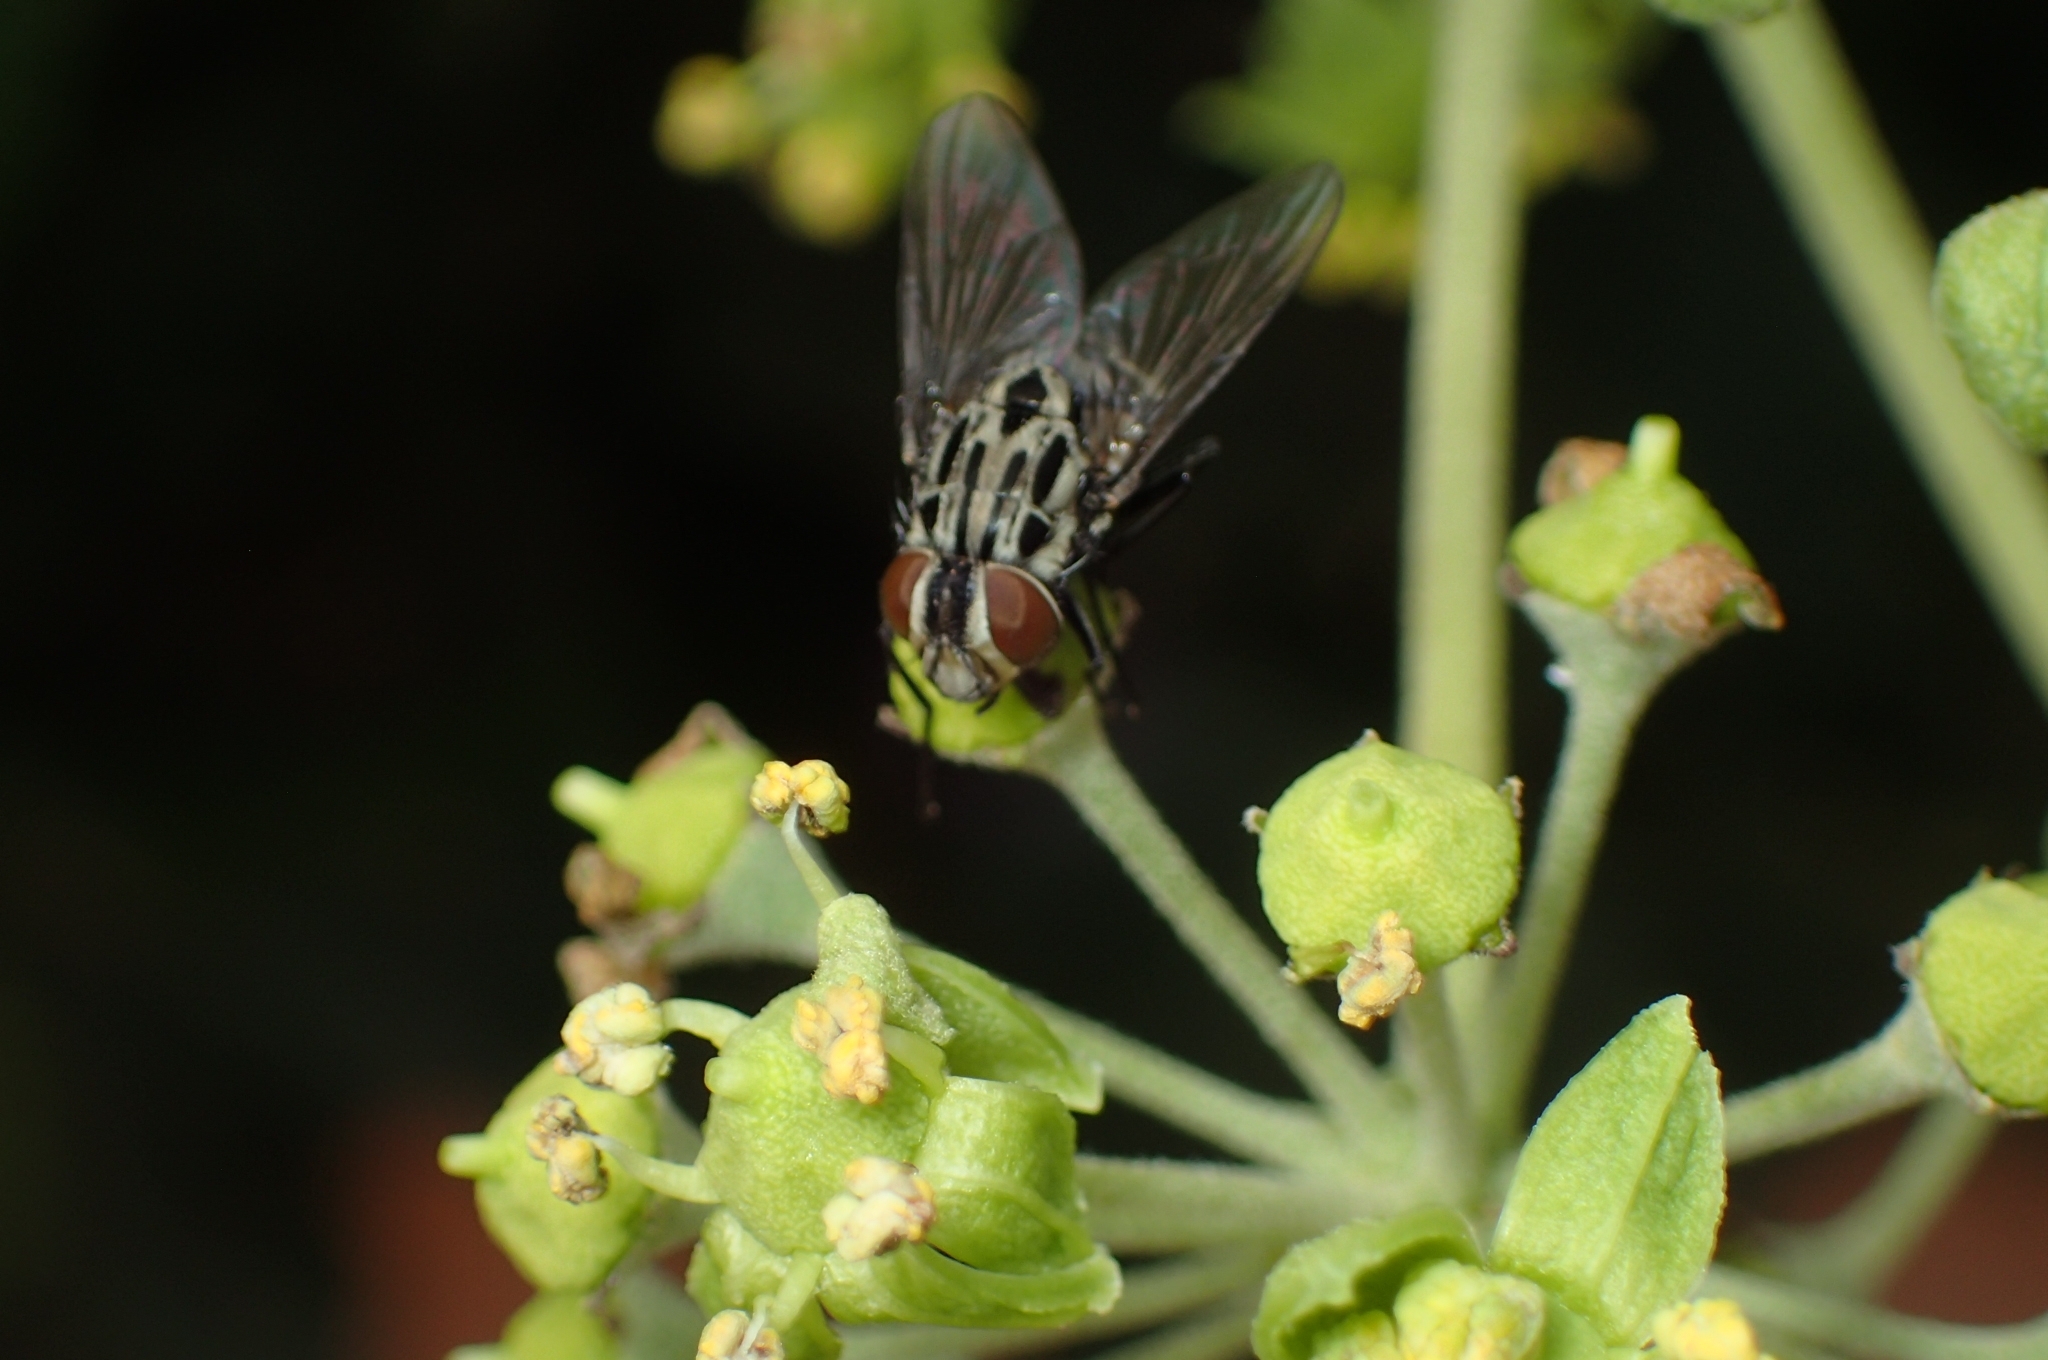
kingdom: Animalia
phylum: Arthropoda
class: Insecta
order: Diptera
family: Muscidae
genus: Graphomya
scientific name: Graphomya maculata
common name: Muscid fly
